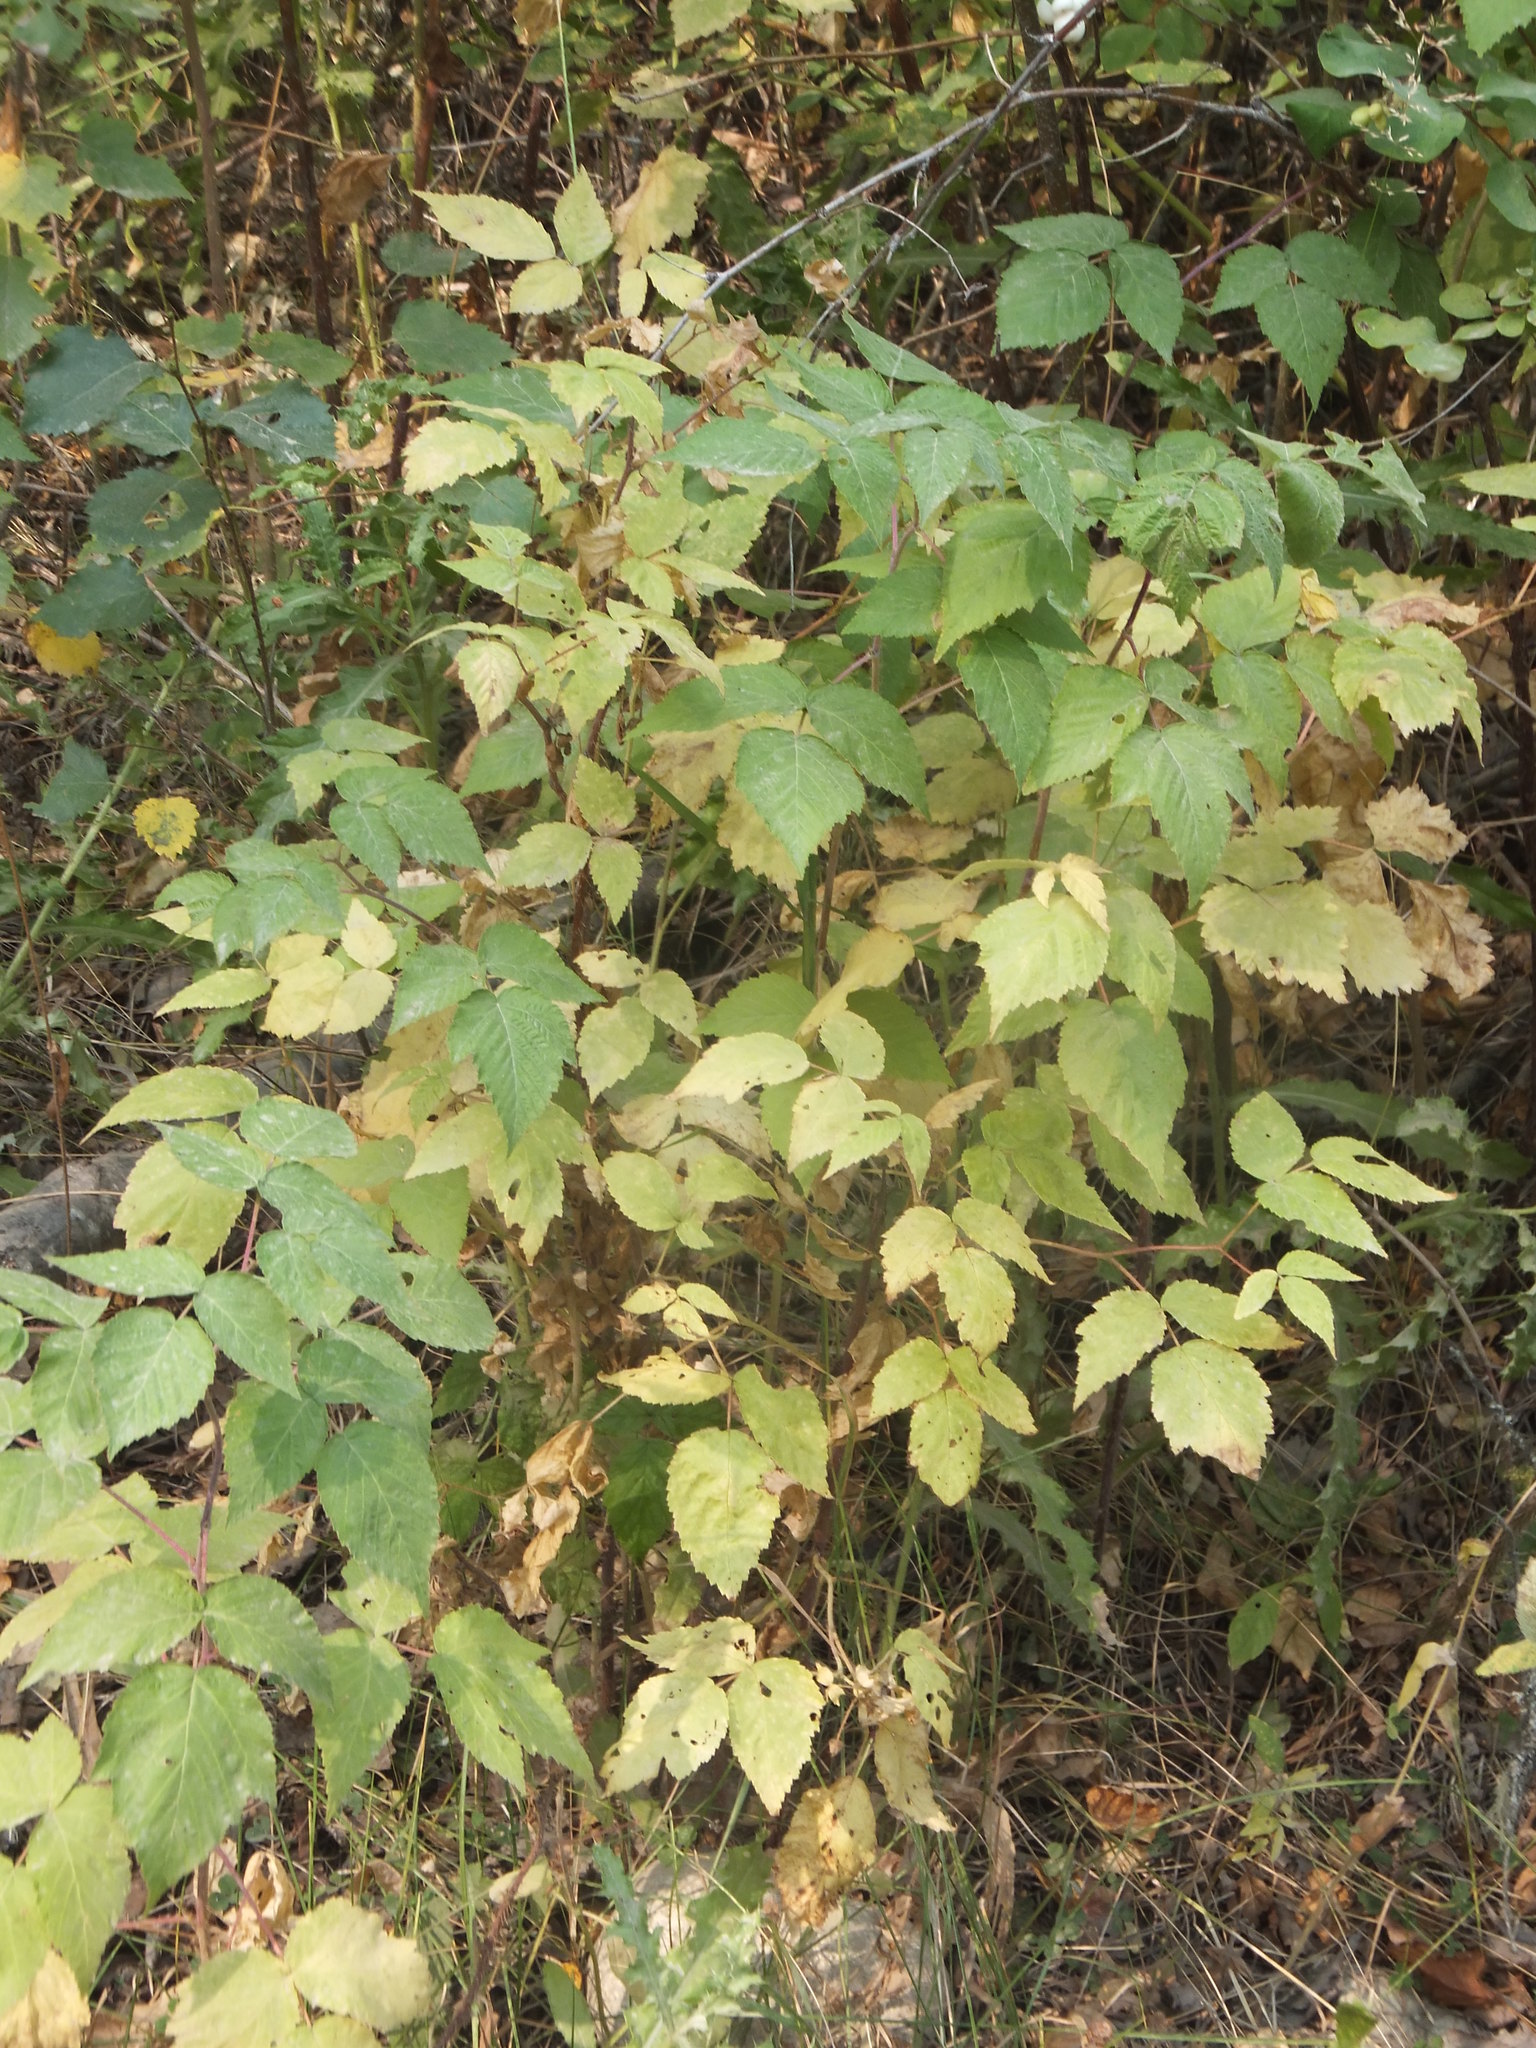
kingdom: Plantae
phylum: Tracheophyta
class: Magnoliopsida
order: Rosales
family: Rosaceae
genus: Rubus
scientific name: Rubus idaeus
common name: Raspberry
